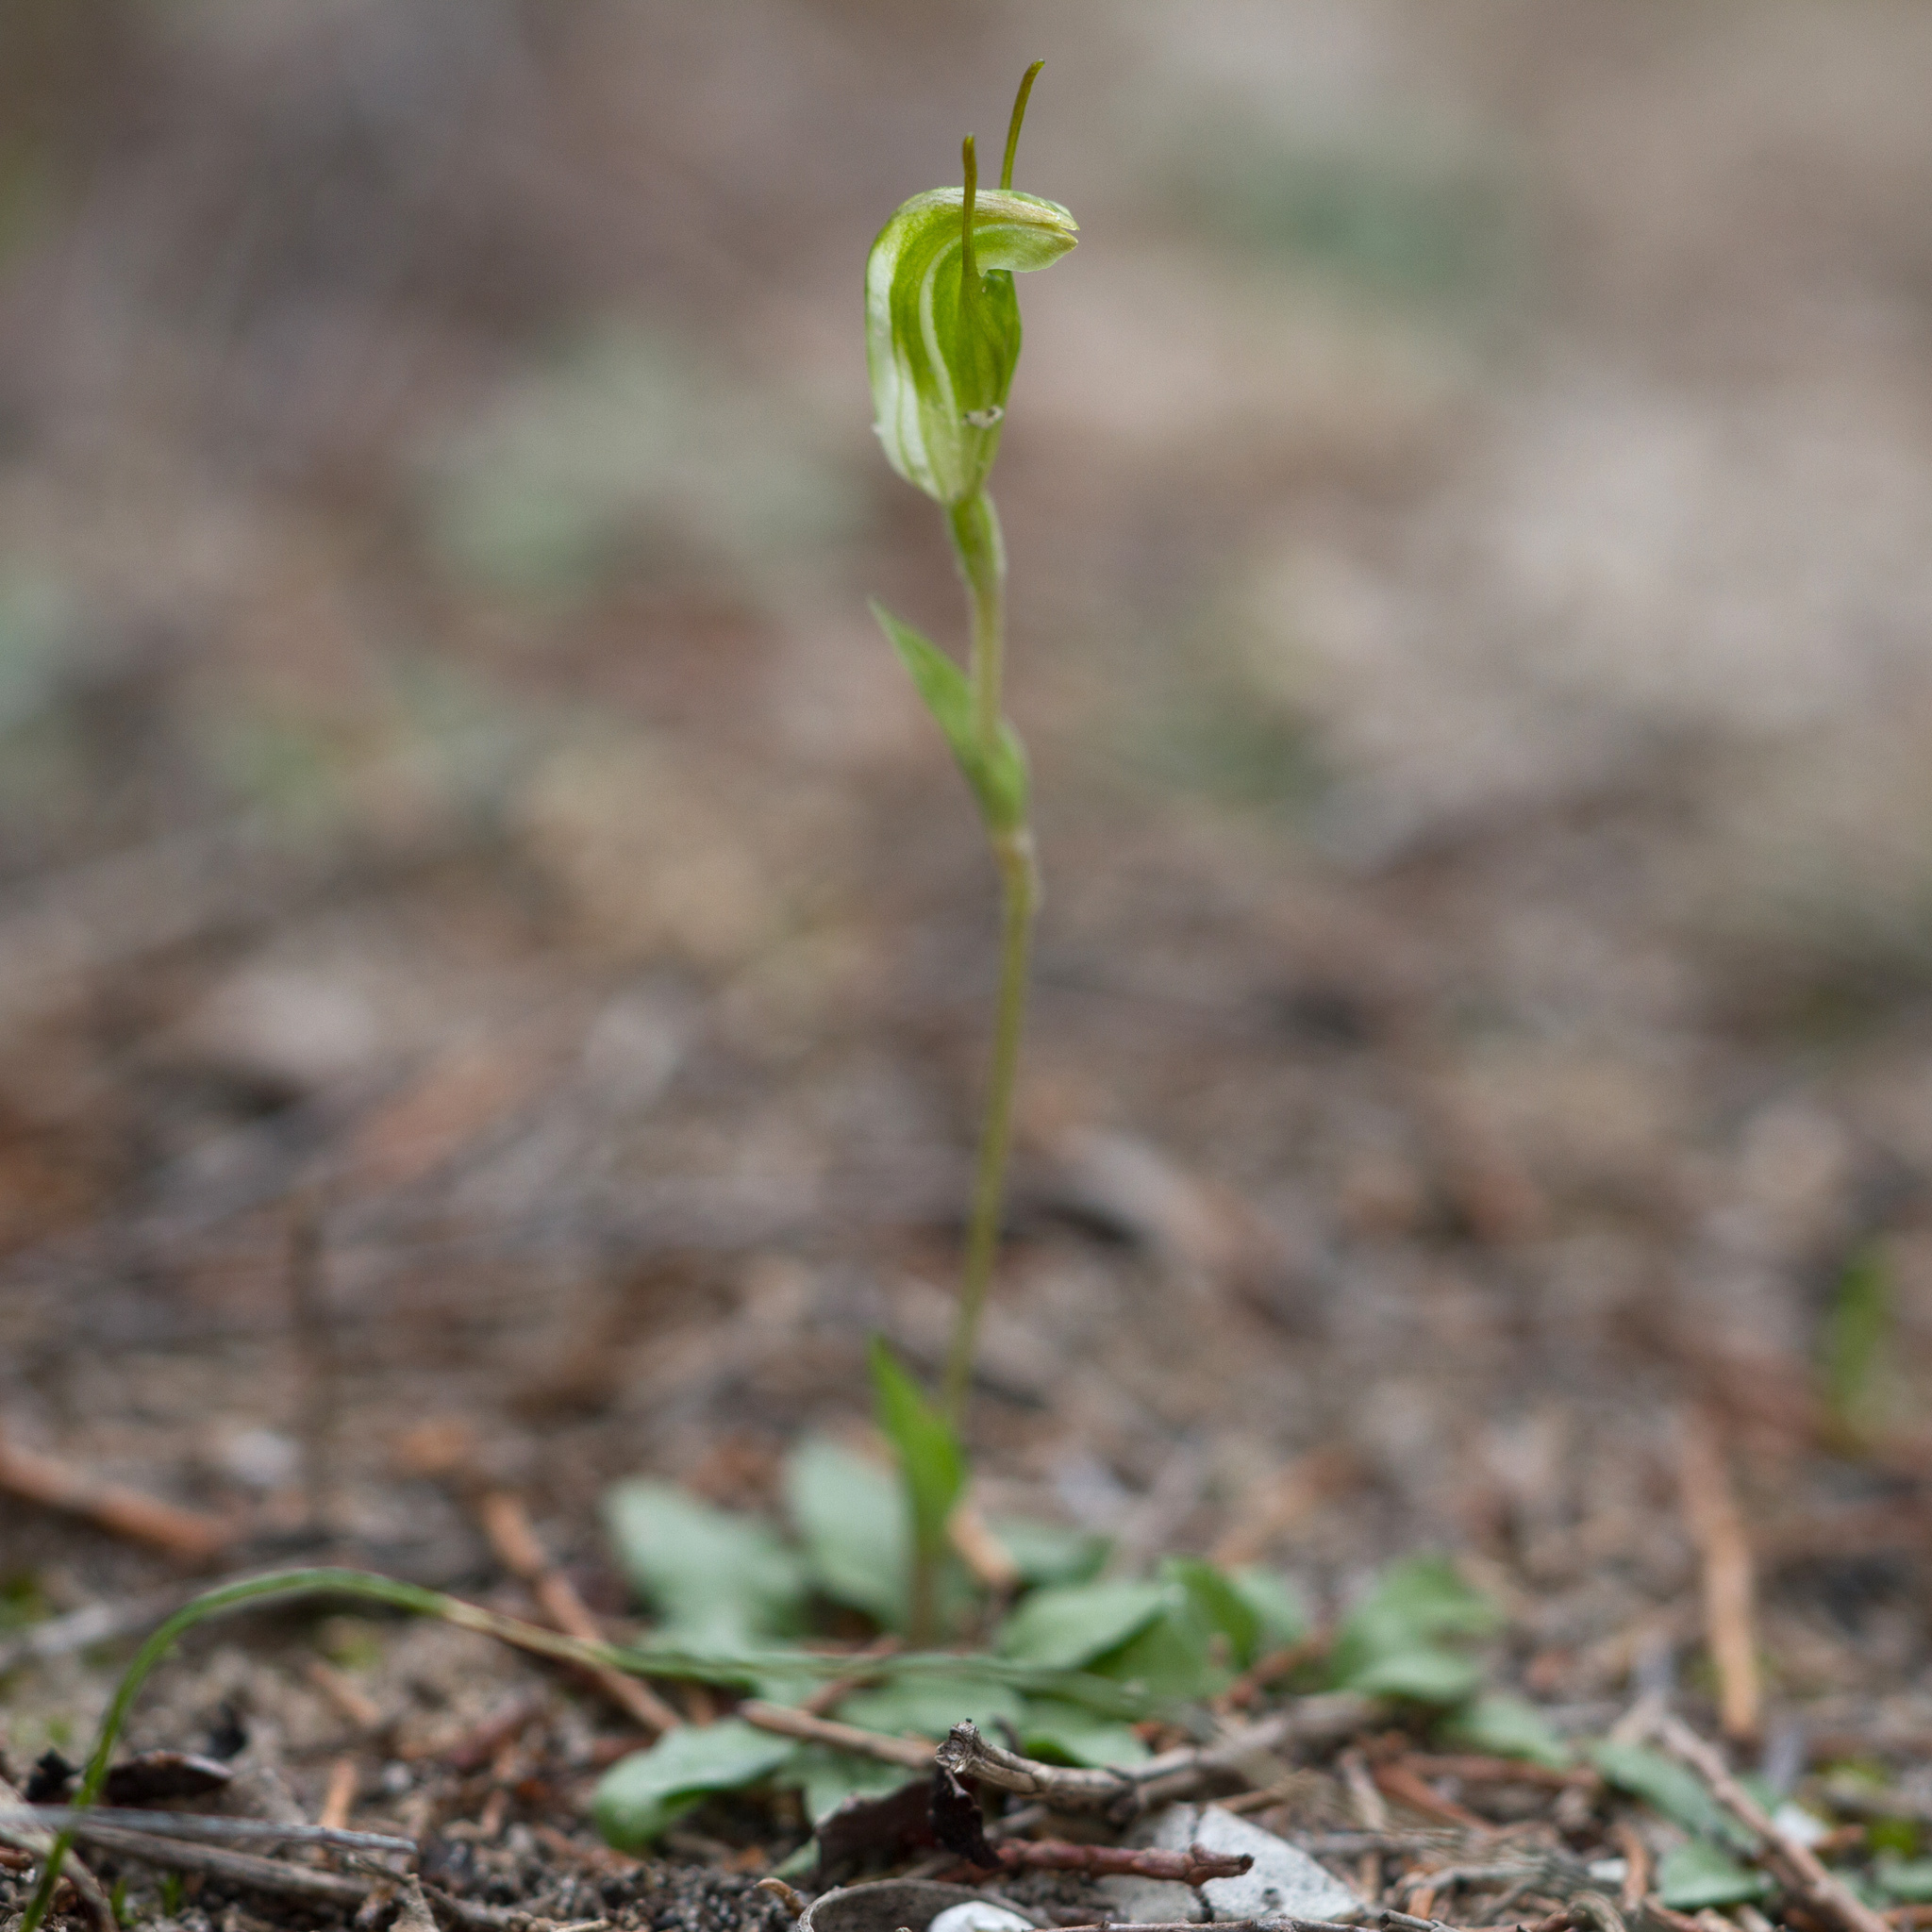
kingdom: Plantae
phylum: Tracheophyta
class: Liliopsida
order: Asparagales
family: Orchidaceae
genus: Pterostylis
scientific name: Pterostylis nana
